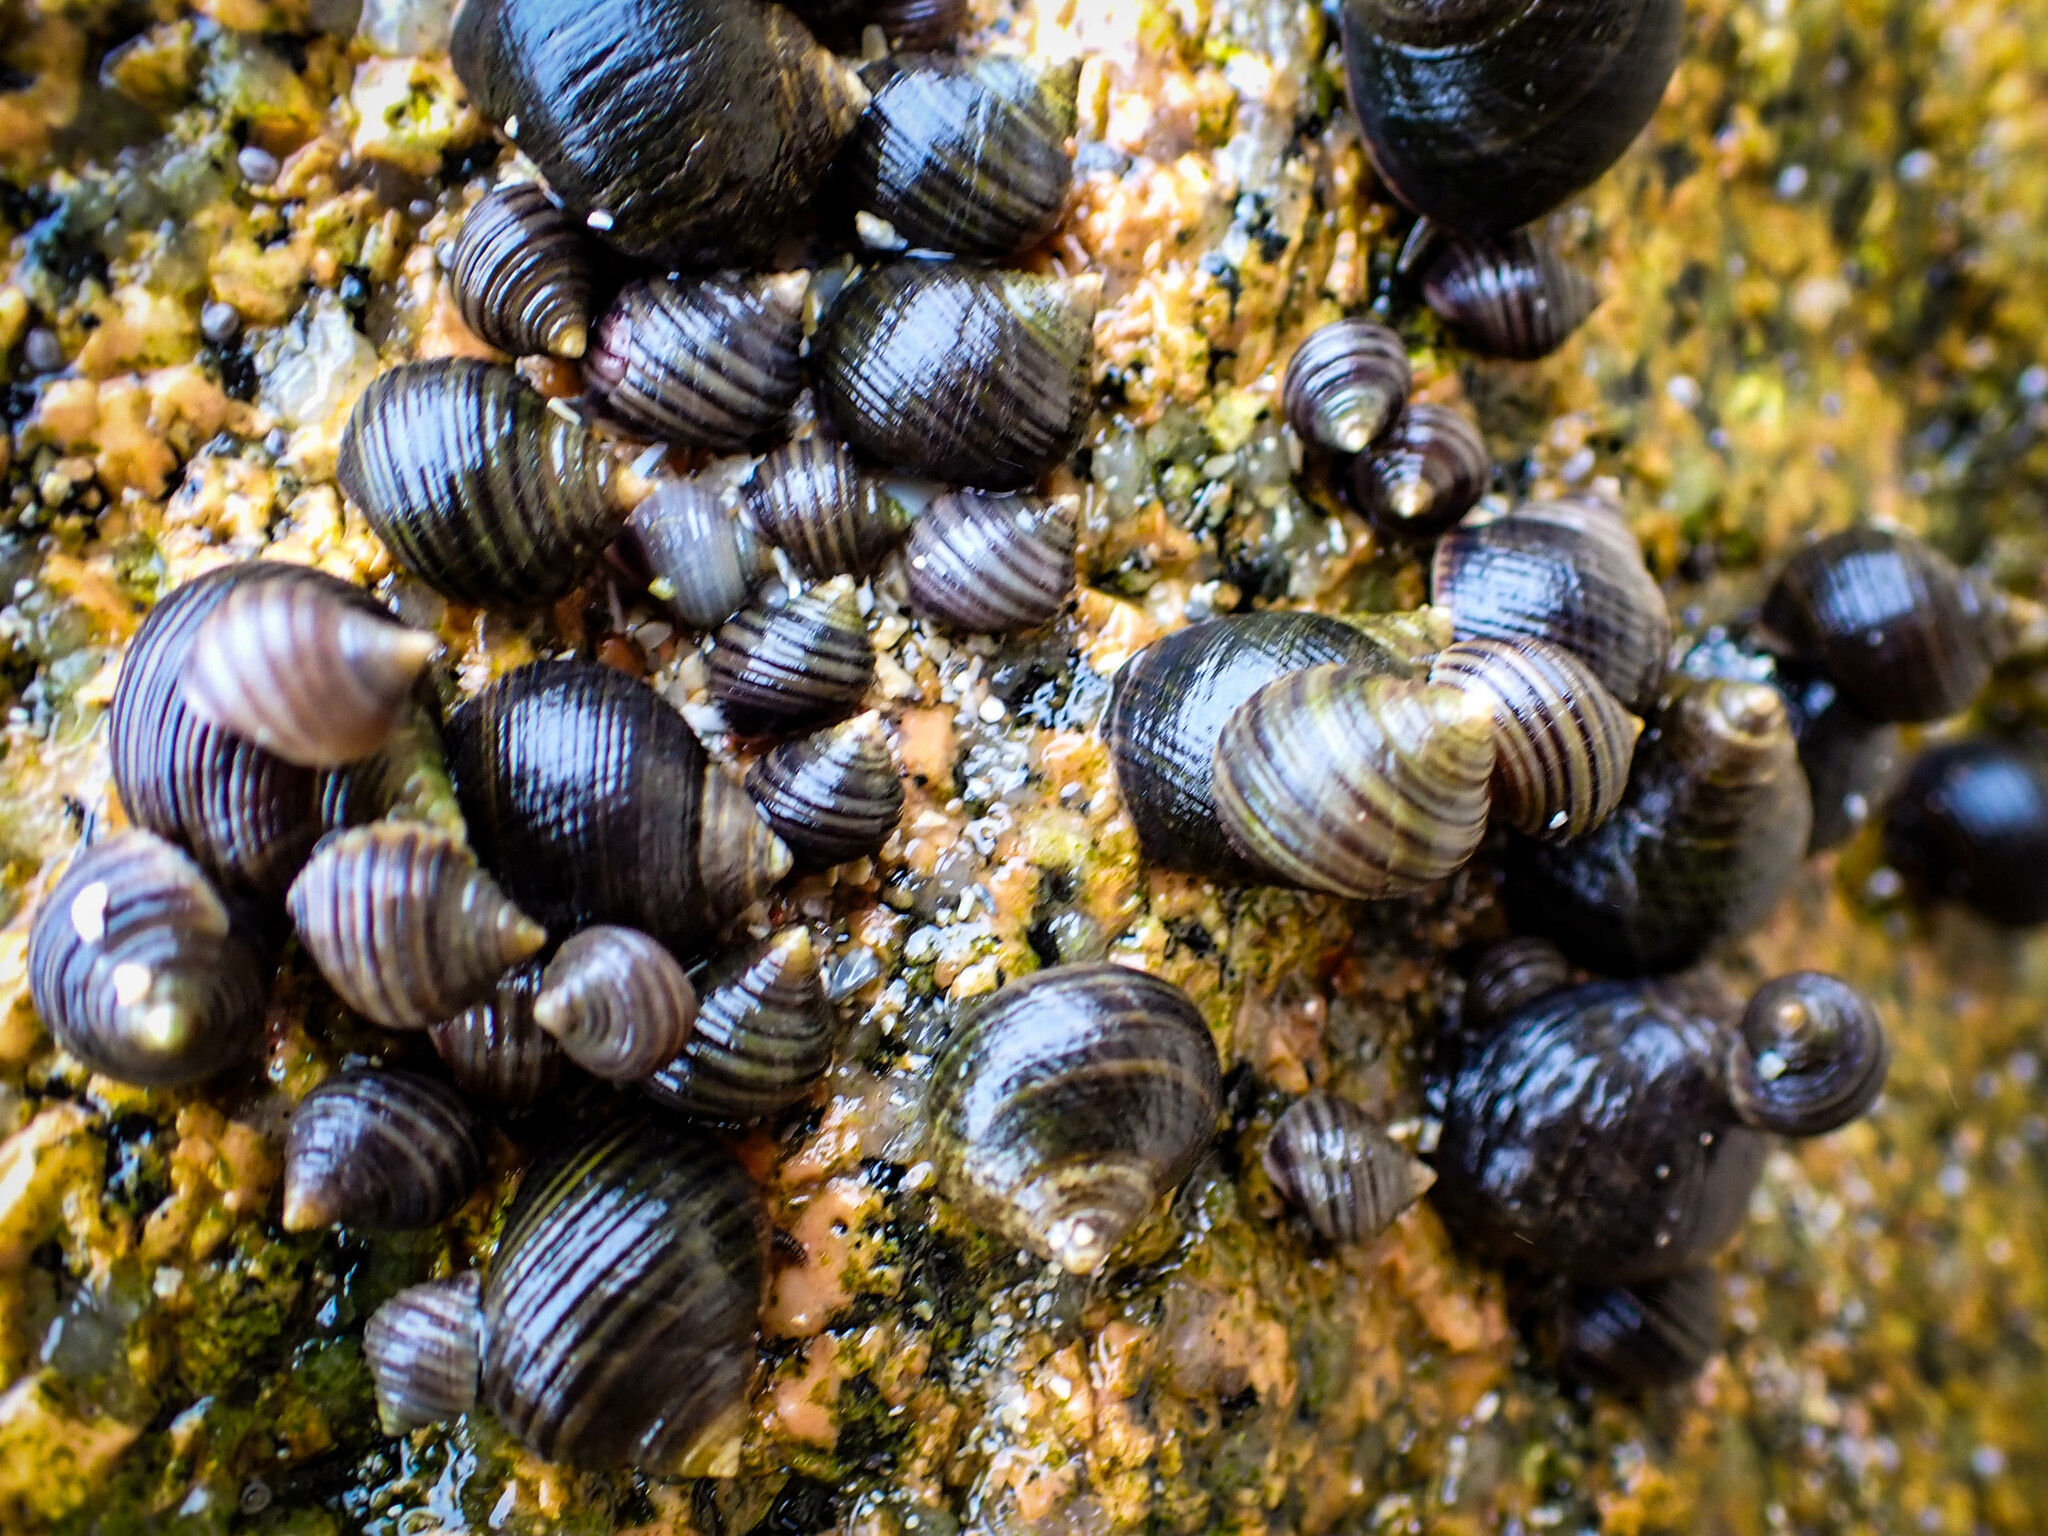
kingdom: Animalia
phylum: Mollusca
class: Gastropoda
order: Littorinimorpha
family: Littorinidae
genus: Littorina
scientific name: Littorina littorea
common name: Common periwinkle
